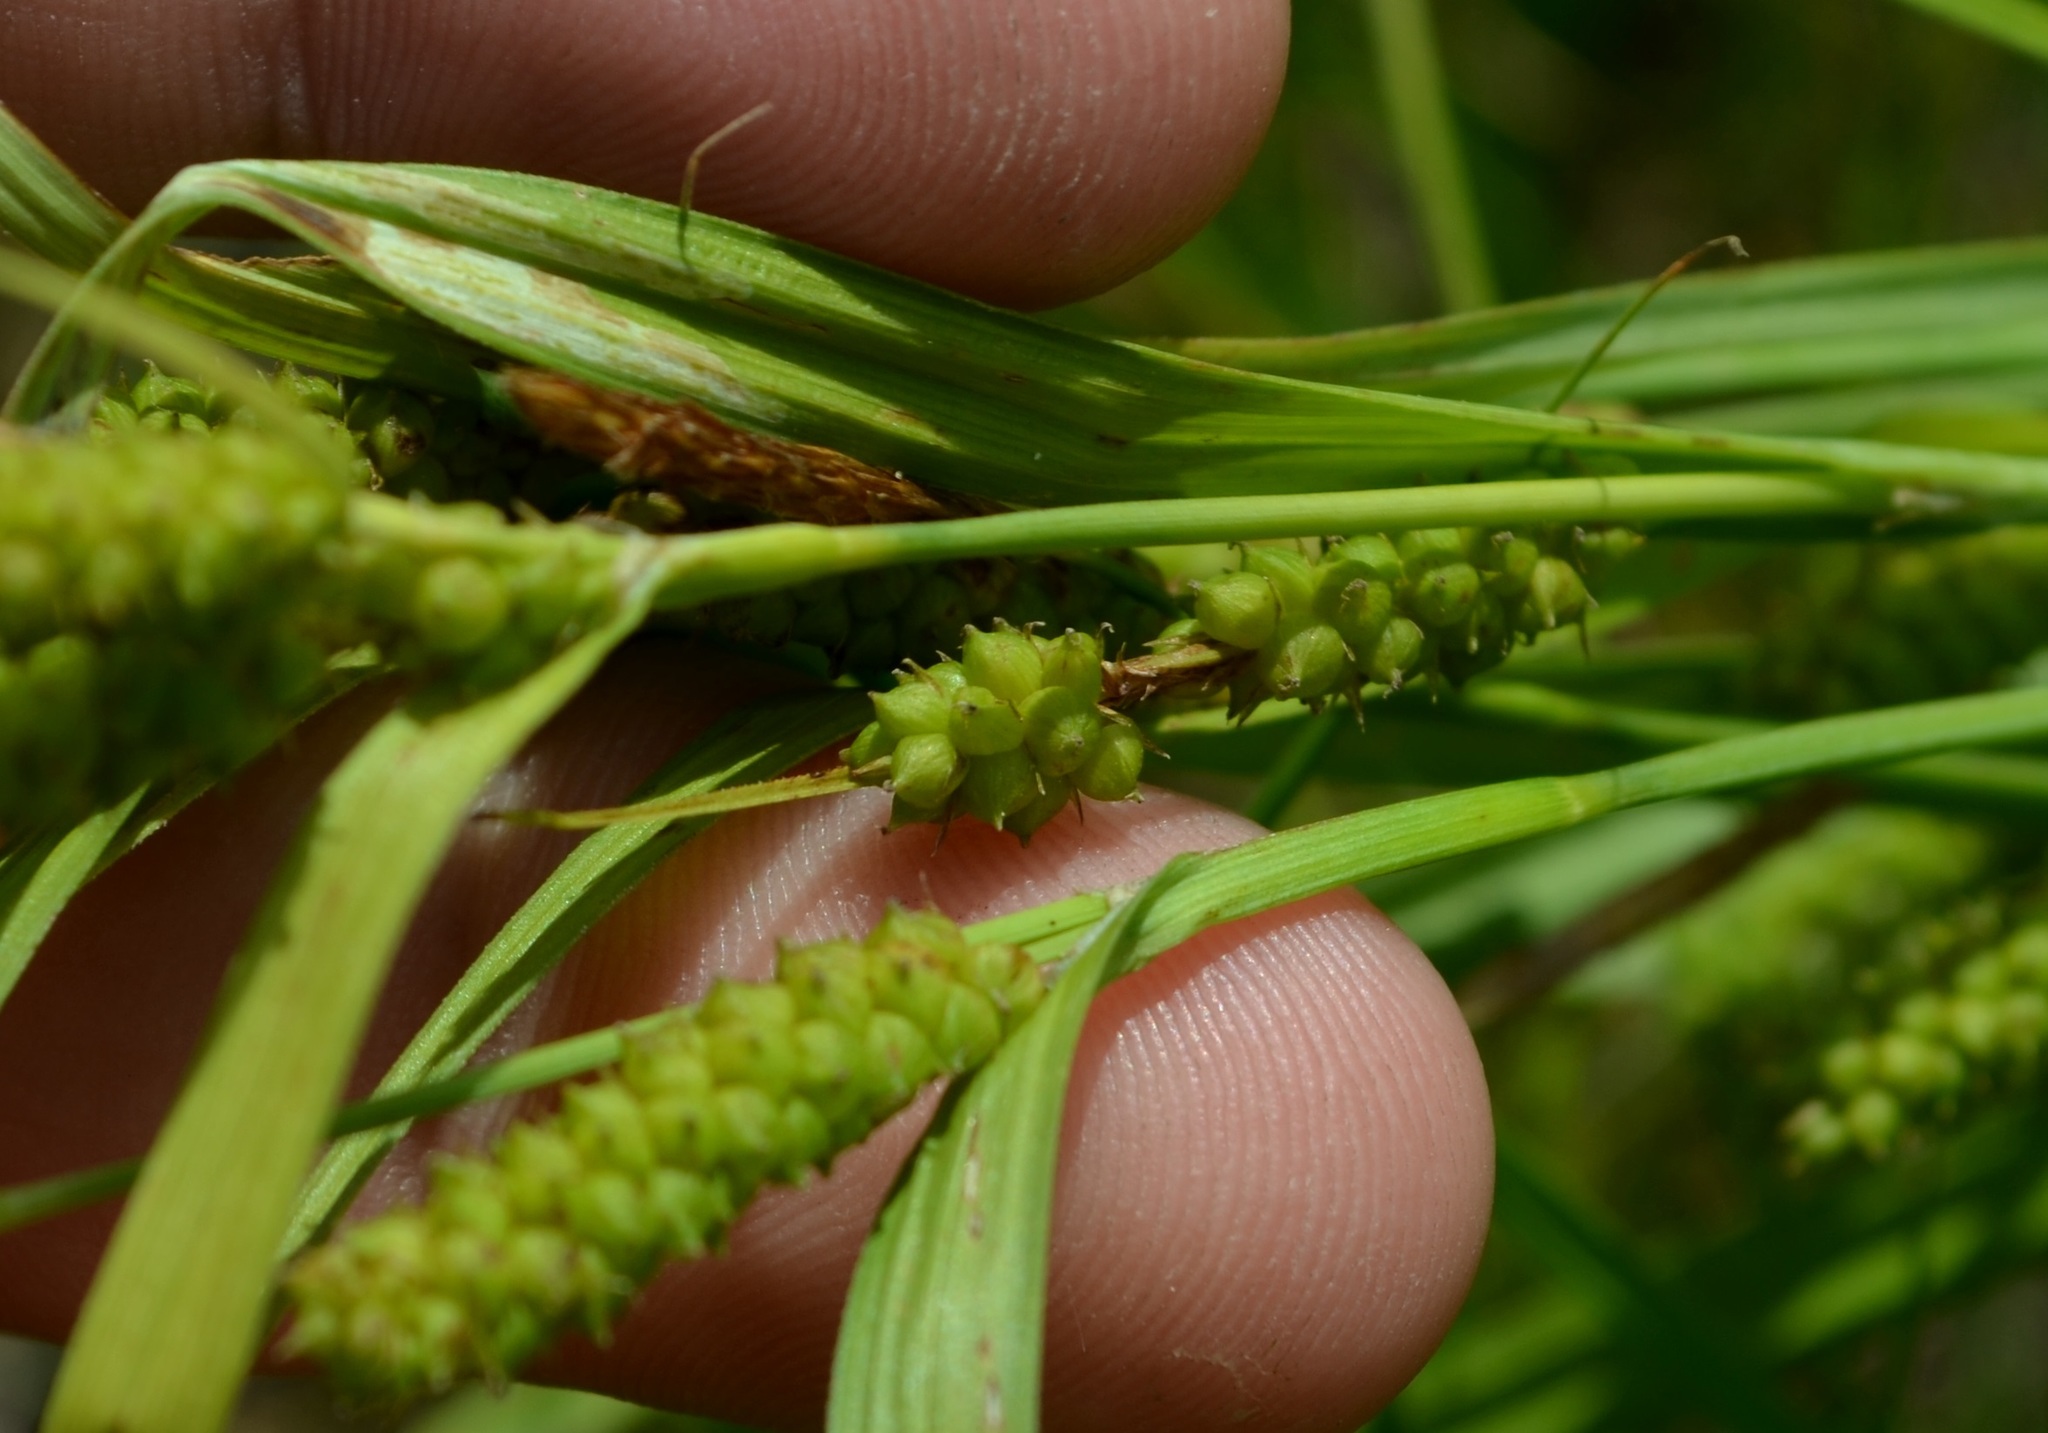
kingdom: Plantae
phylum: Tracheophyta
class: Liliopsida
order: Poales
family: Cyperaceae
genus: Carex
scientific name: Carex granularis
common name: Granular sedge
